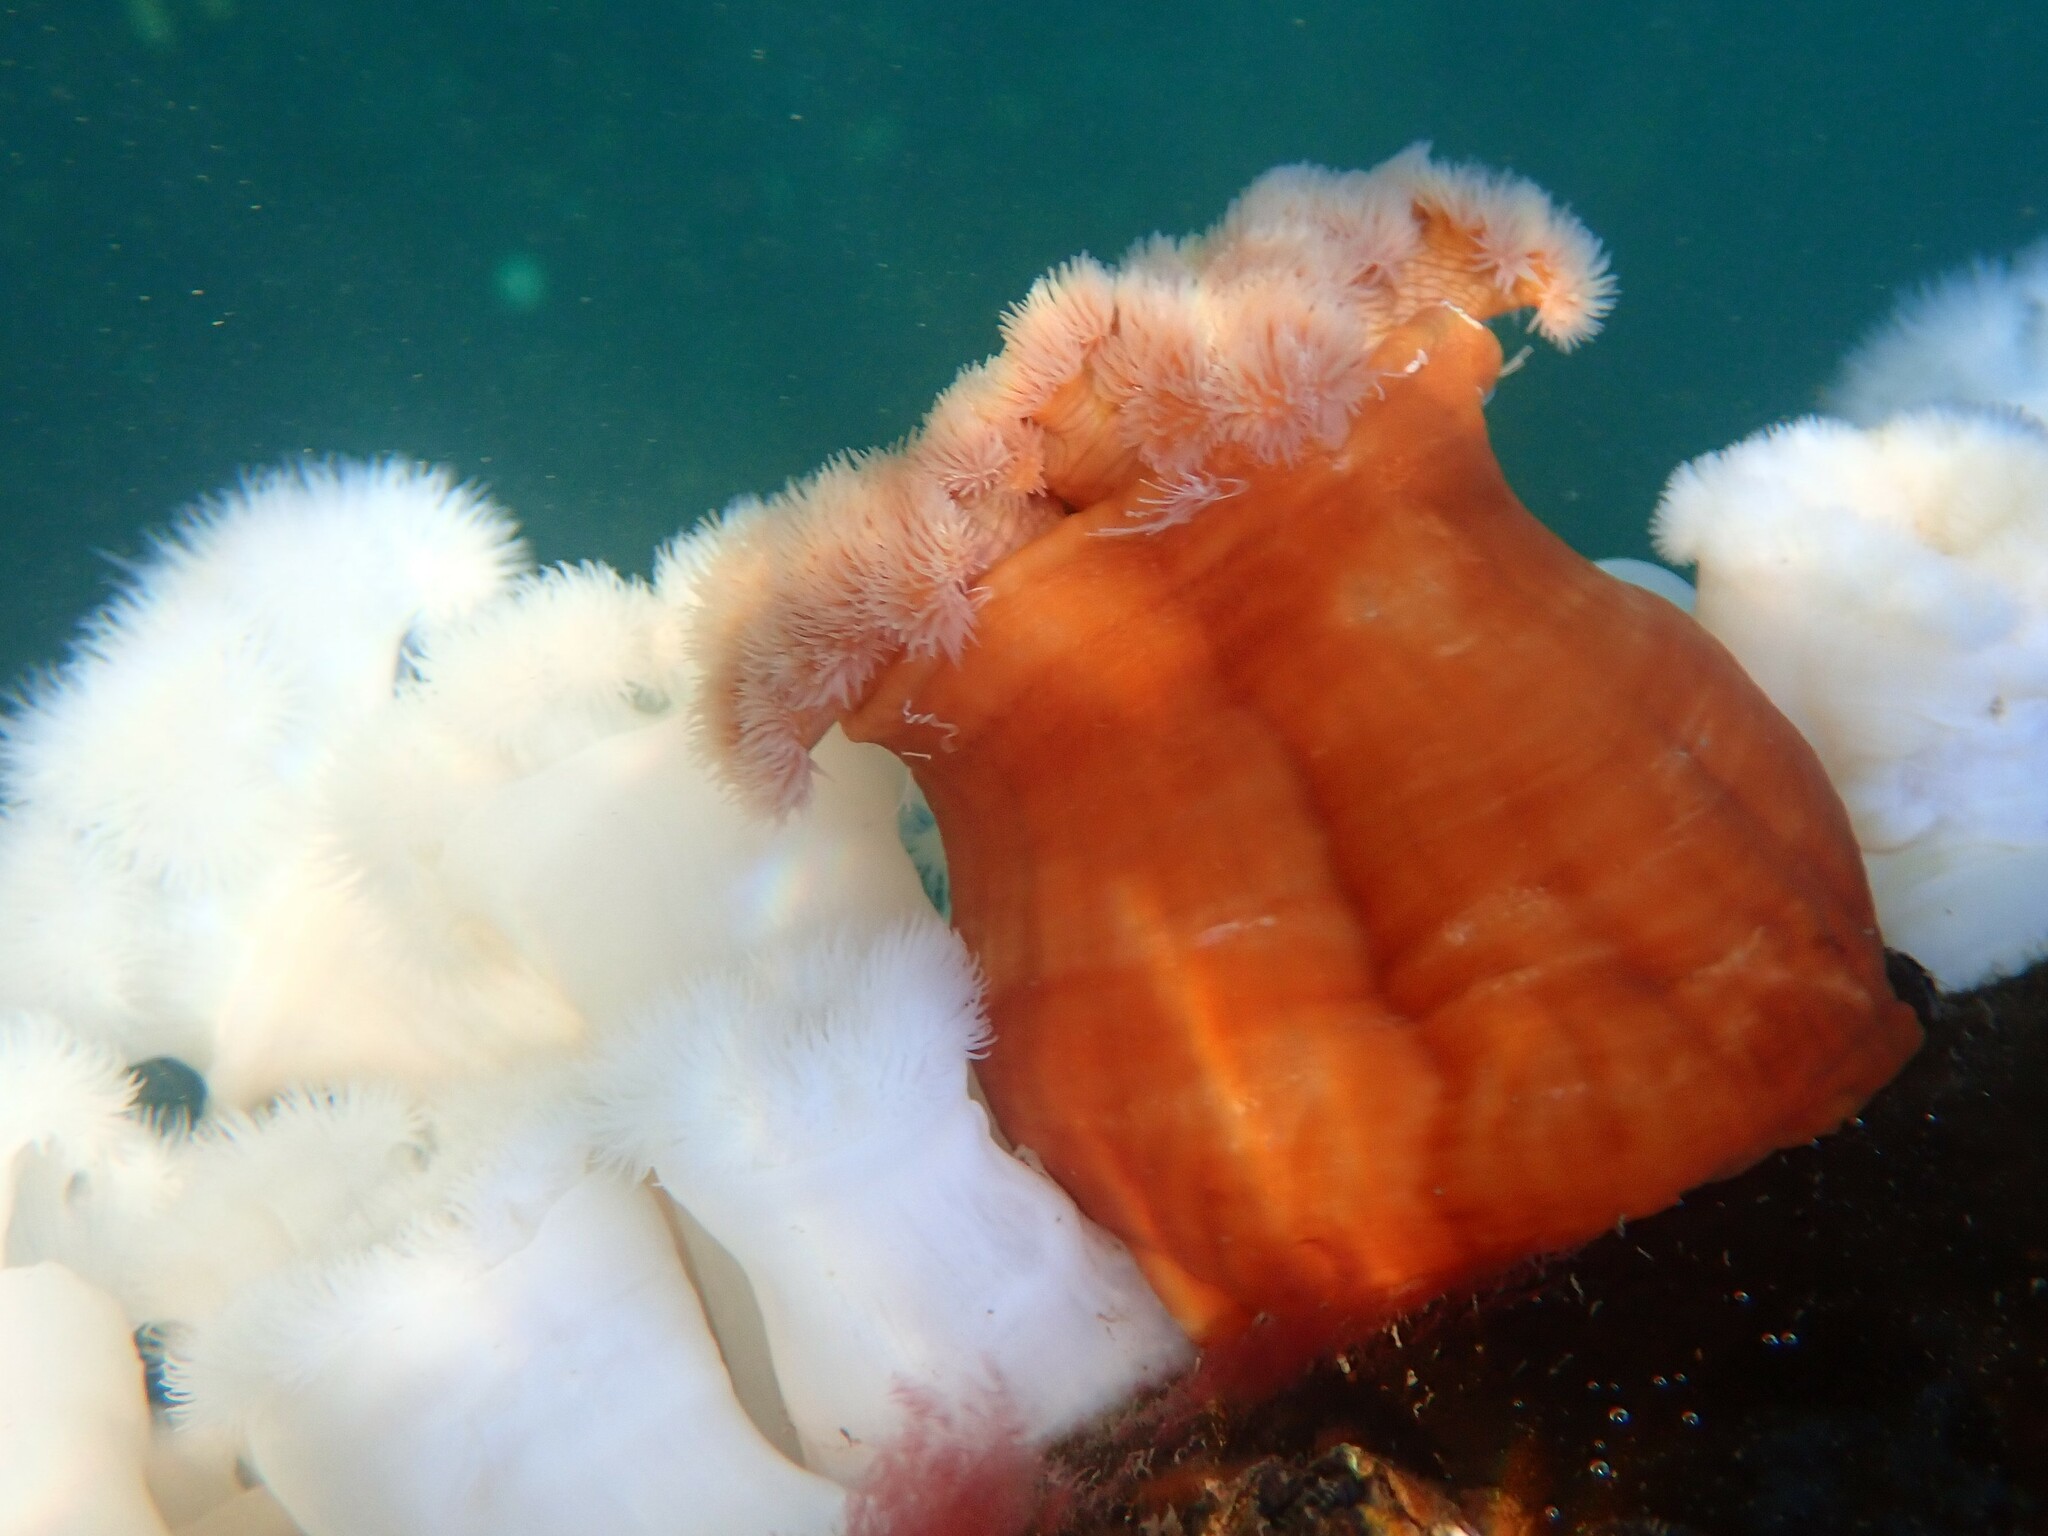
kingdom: Animalia
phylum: Cnidaria
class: Anthozoa
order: Actiniaria
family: Metridiidae
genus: Metridium
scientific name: Metridium farcimen
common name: Gigantic anemone
